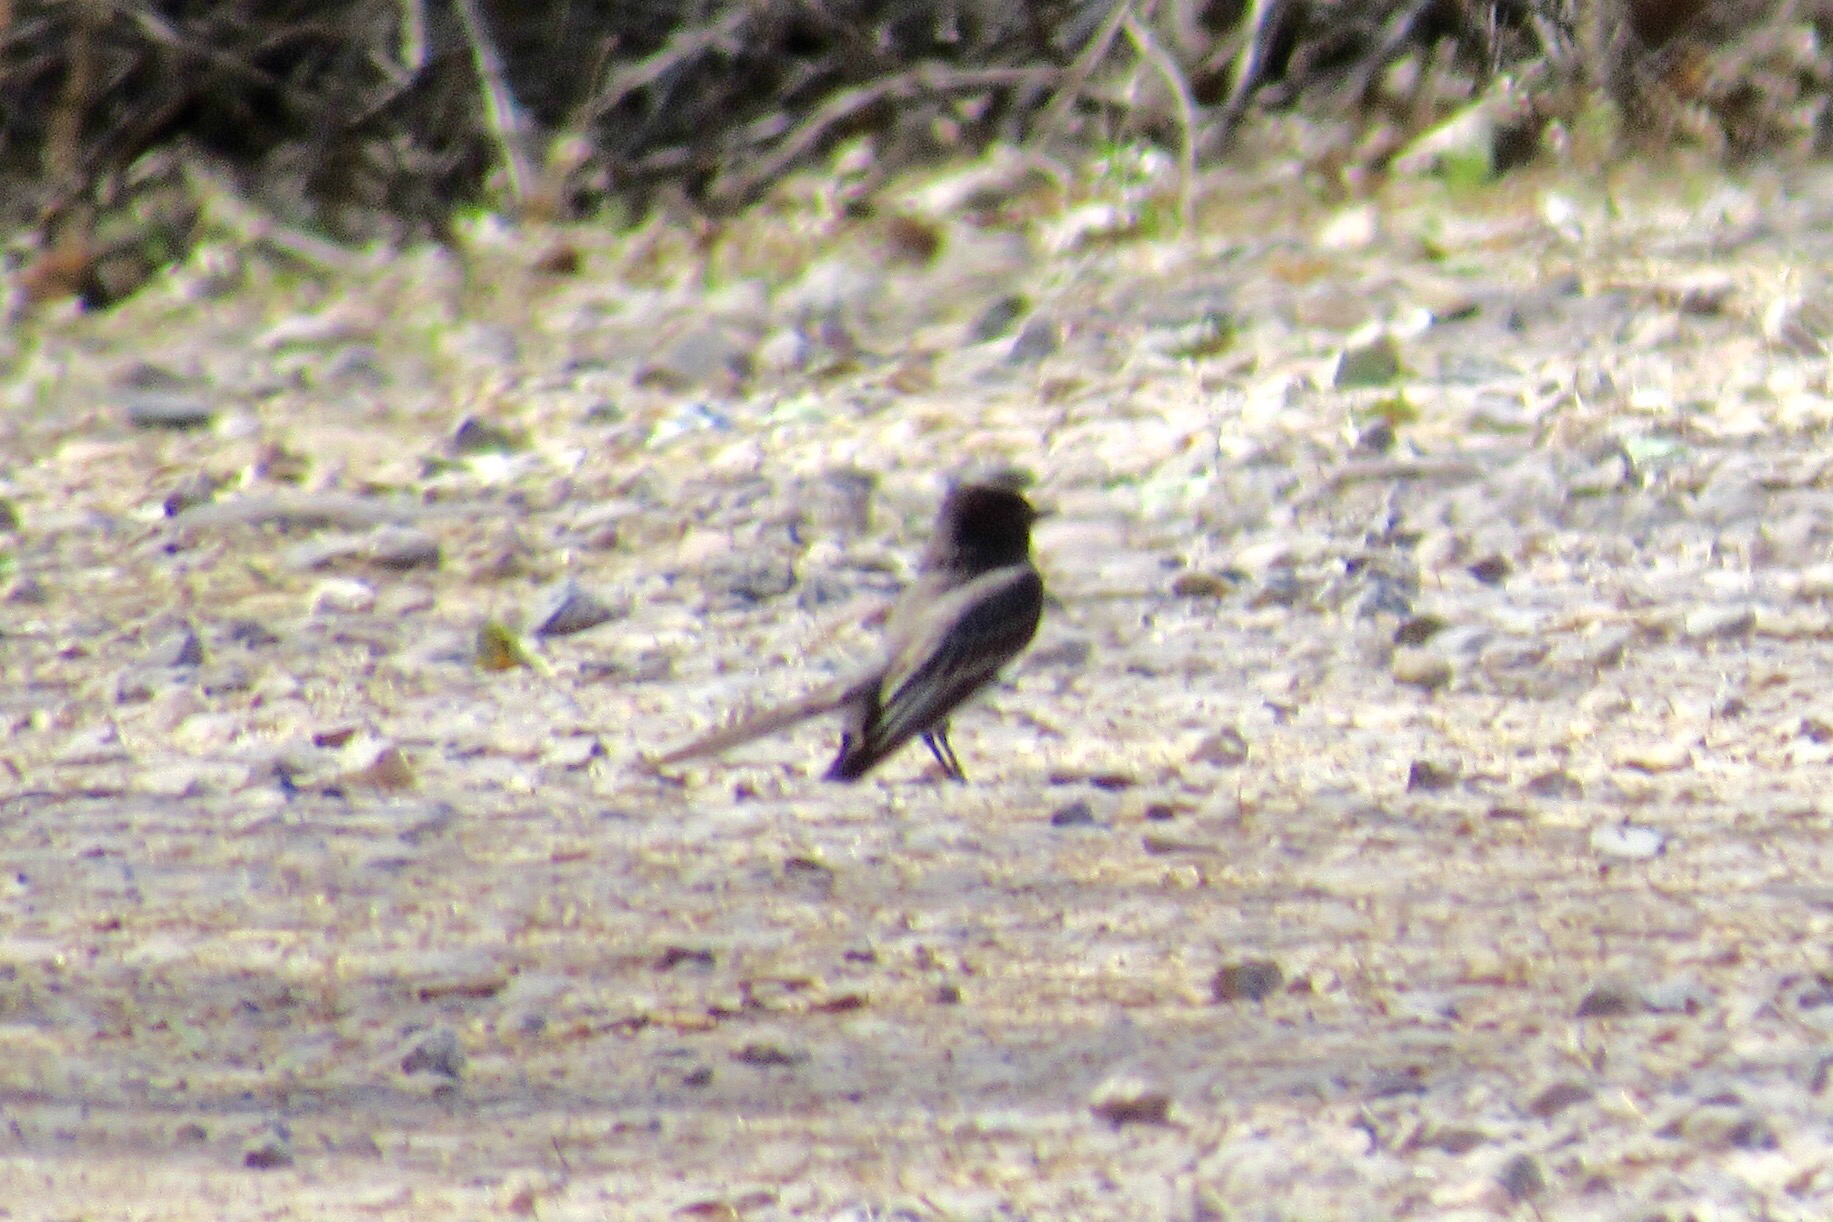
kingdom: Animalia
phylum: Chordata
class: Aves
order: Passeriformes
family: Tyrannidae
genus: Sayornis
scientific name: Sayornis nigricans
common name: Black phoebe
